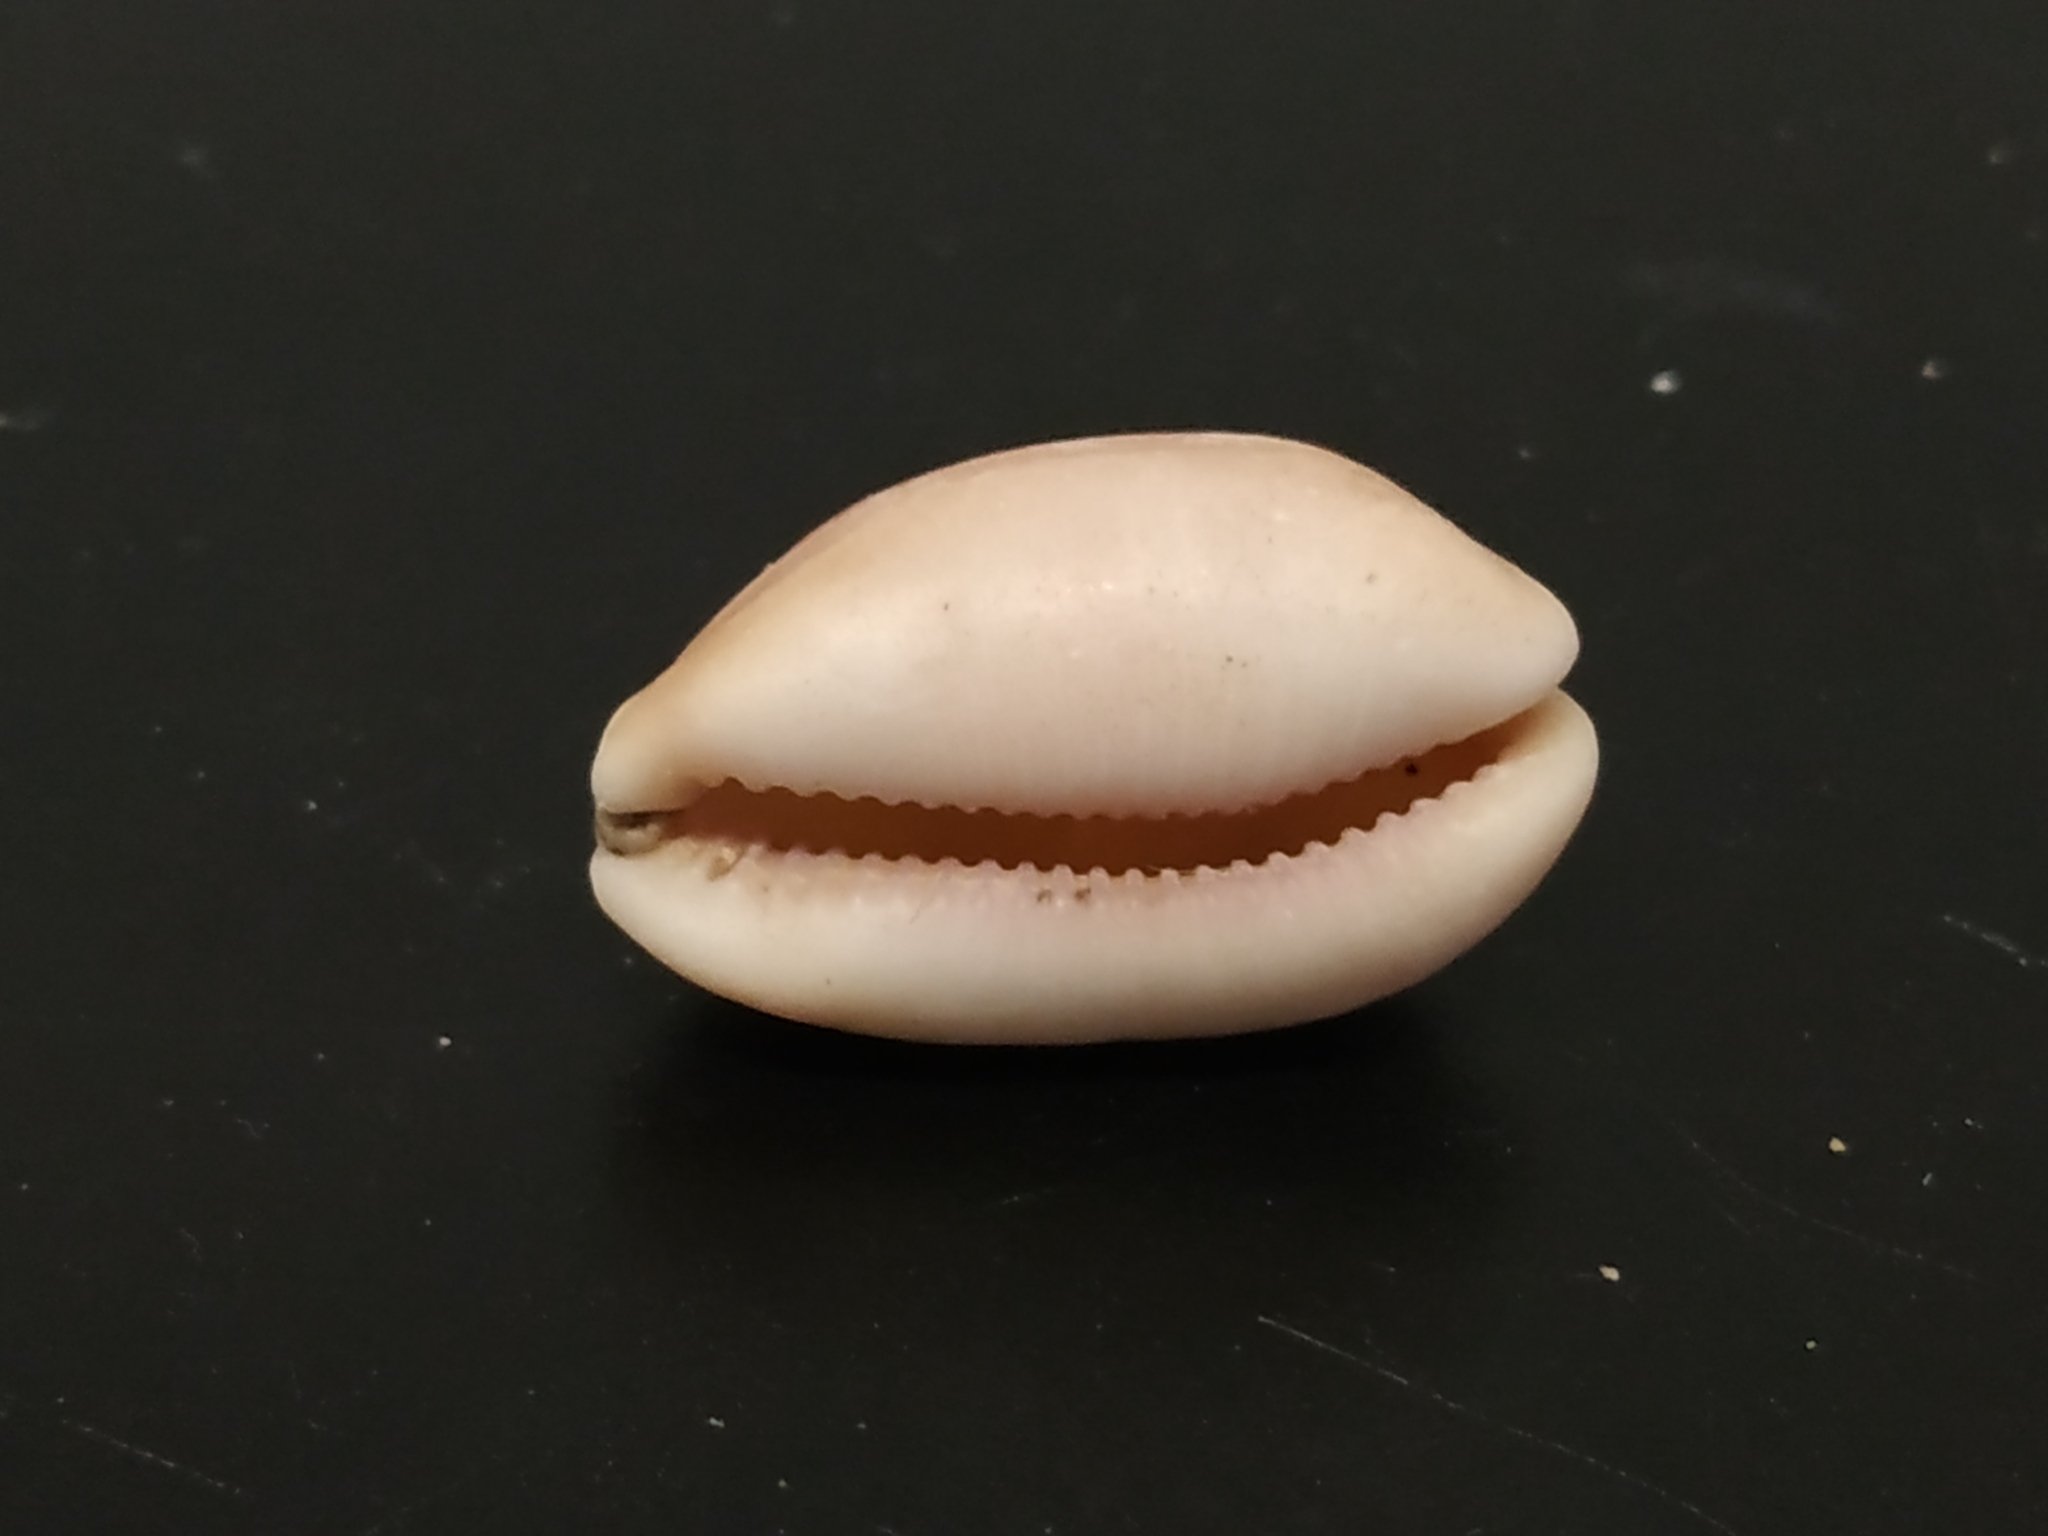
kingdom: Animalia
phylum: Mollusca
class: Gastropoda
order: Littorinimorpha
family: Cypraeidae
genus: Lyncina
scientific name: Lyncina carneola
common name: Purple-mouthed cowry
